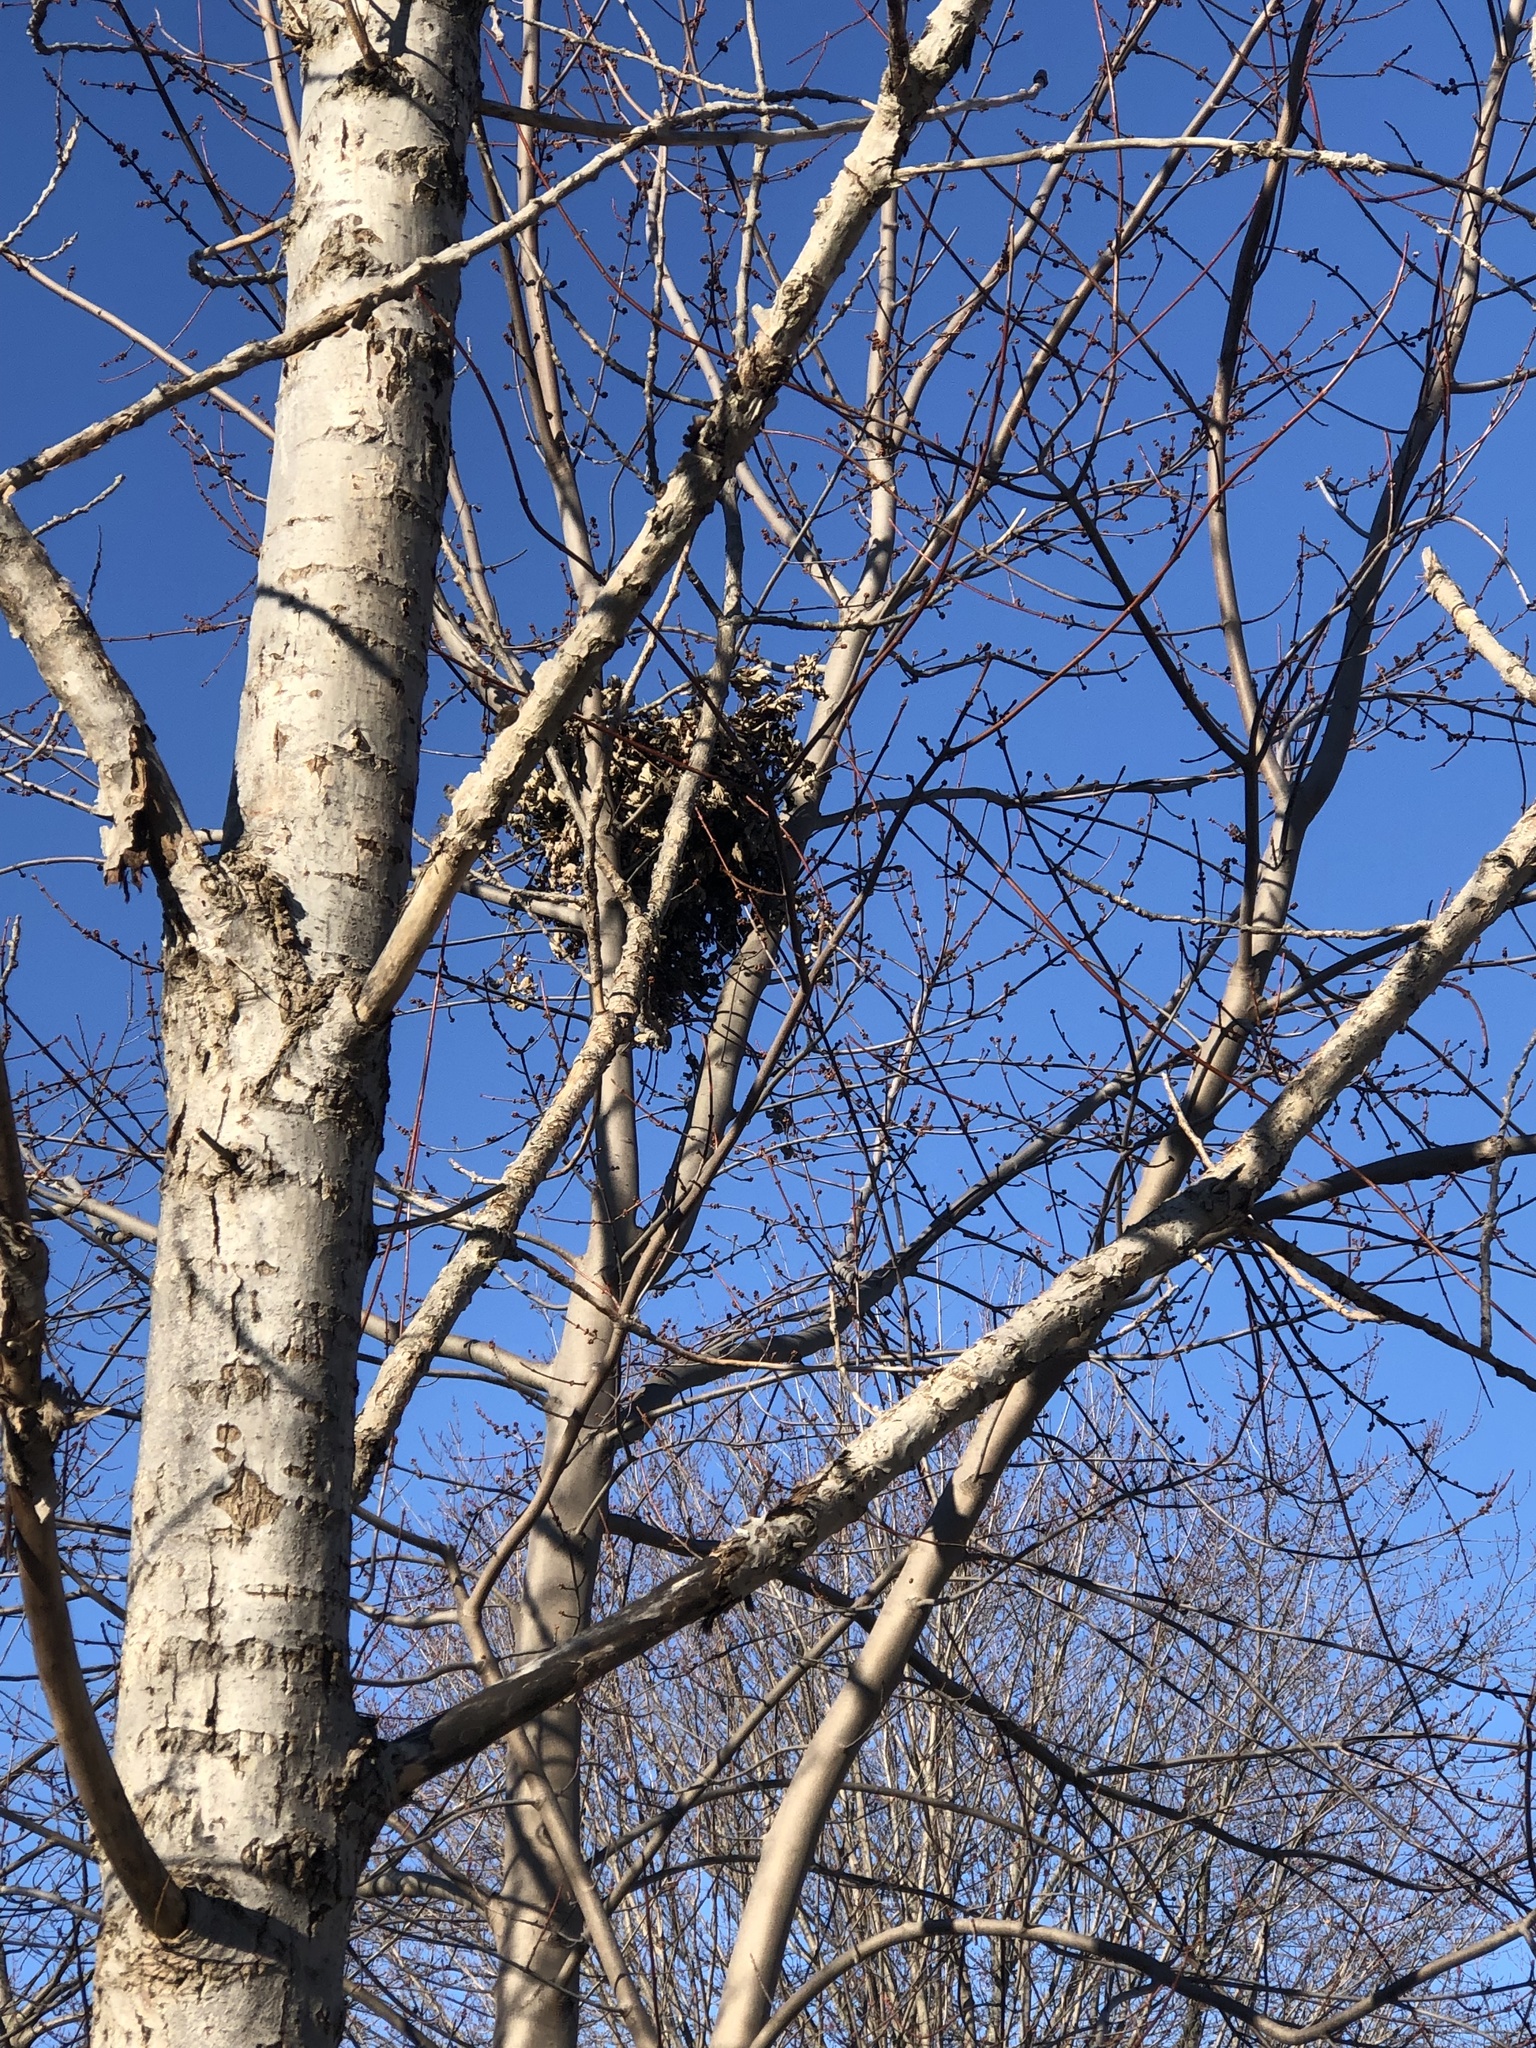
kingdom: Animalia
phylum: Chordata
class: Mammalia
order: Rodentia
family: Sciuridae
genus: Sciurus
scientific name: Sciurus carolinensis
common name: Eastern gray squirrel
